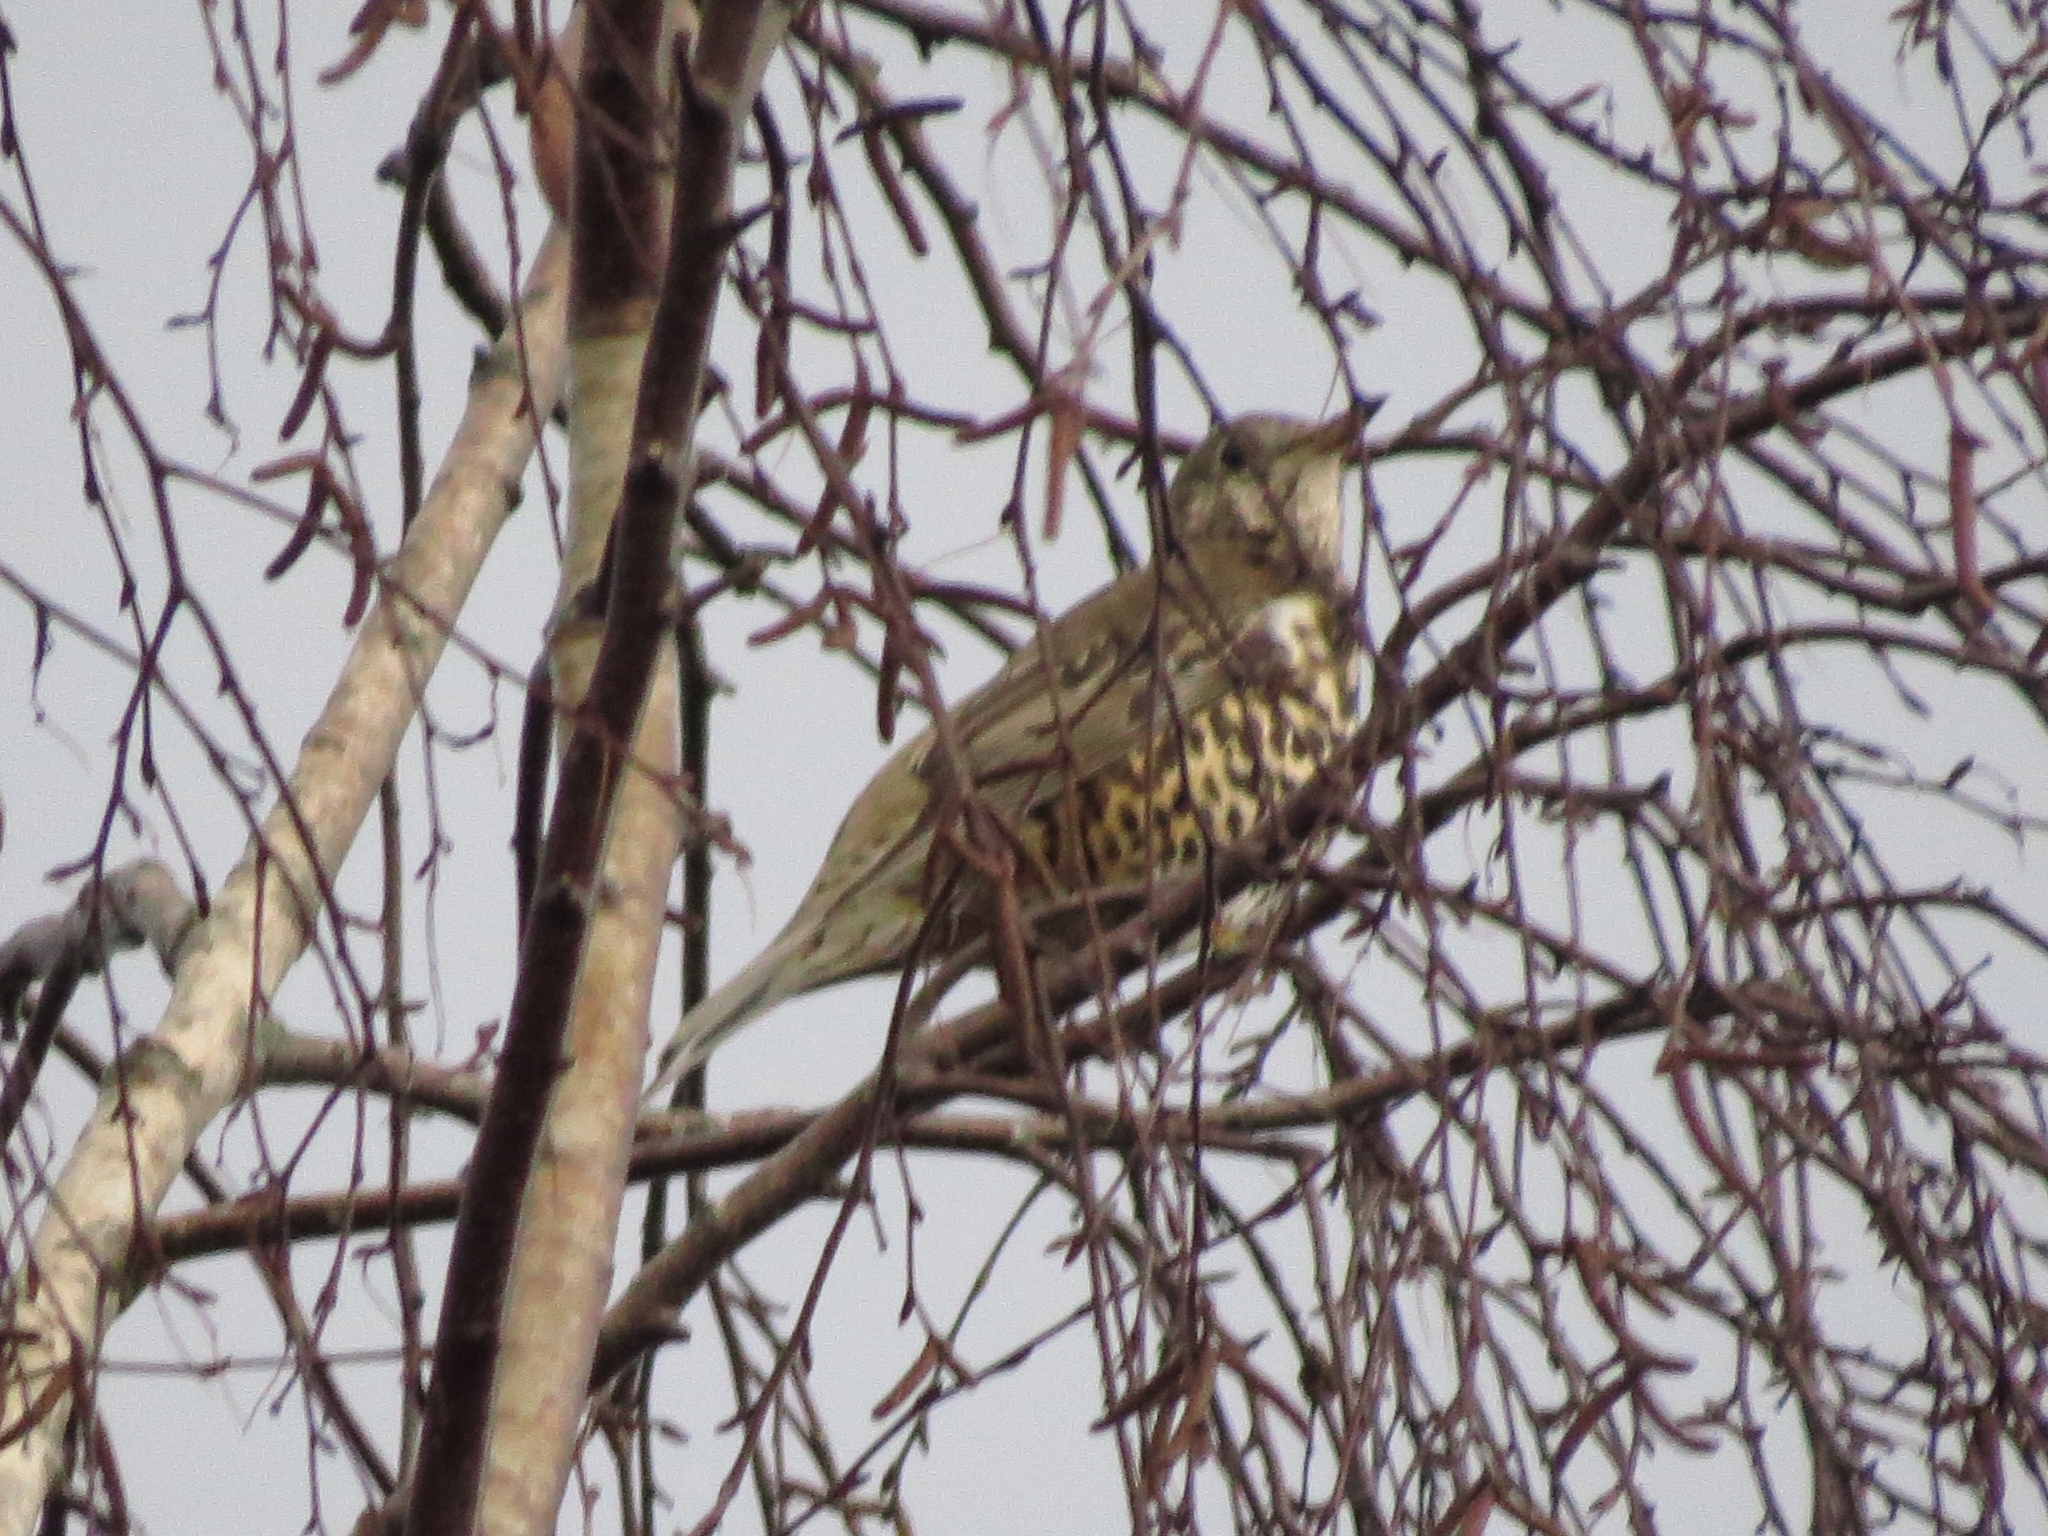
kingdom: Animalia
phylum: Chordata
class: Aves
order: Passeriformes
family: Turdidae
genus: Turdus
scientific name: Turdus viscivorus
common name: Mistle thrush
